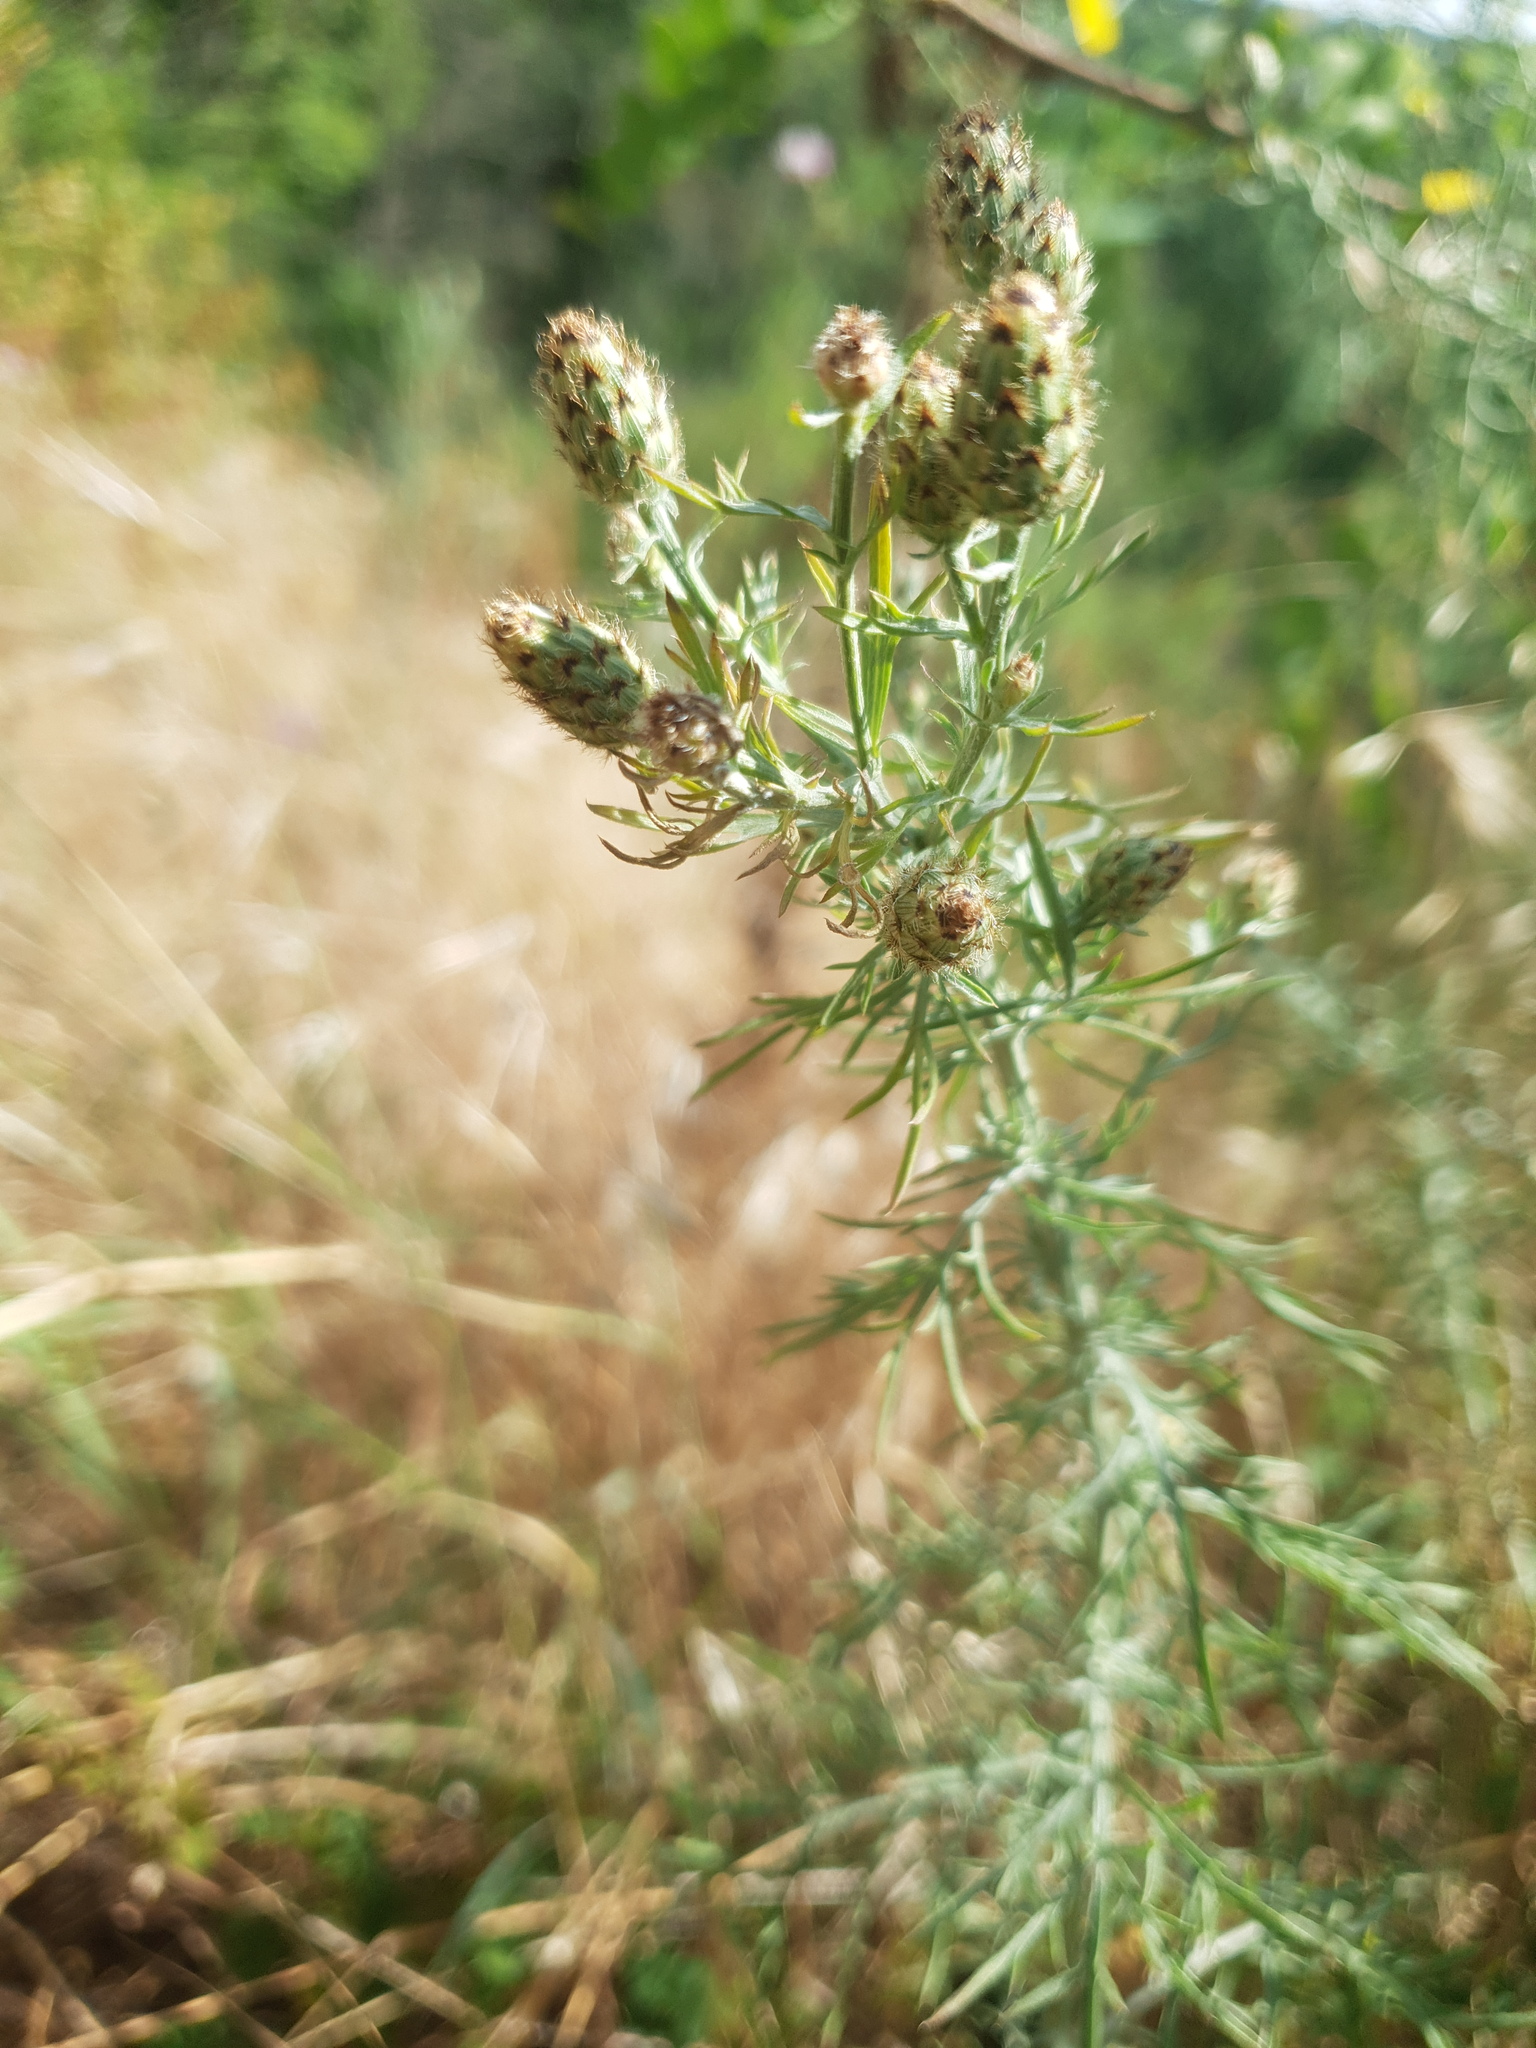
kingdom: Plantae
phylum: Tracheophyta
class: Magnoliopsida
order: Asterales
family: Asteraceae
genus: Centaurea
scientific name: Centaurea stoebe
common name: Spotted knapweed
